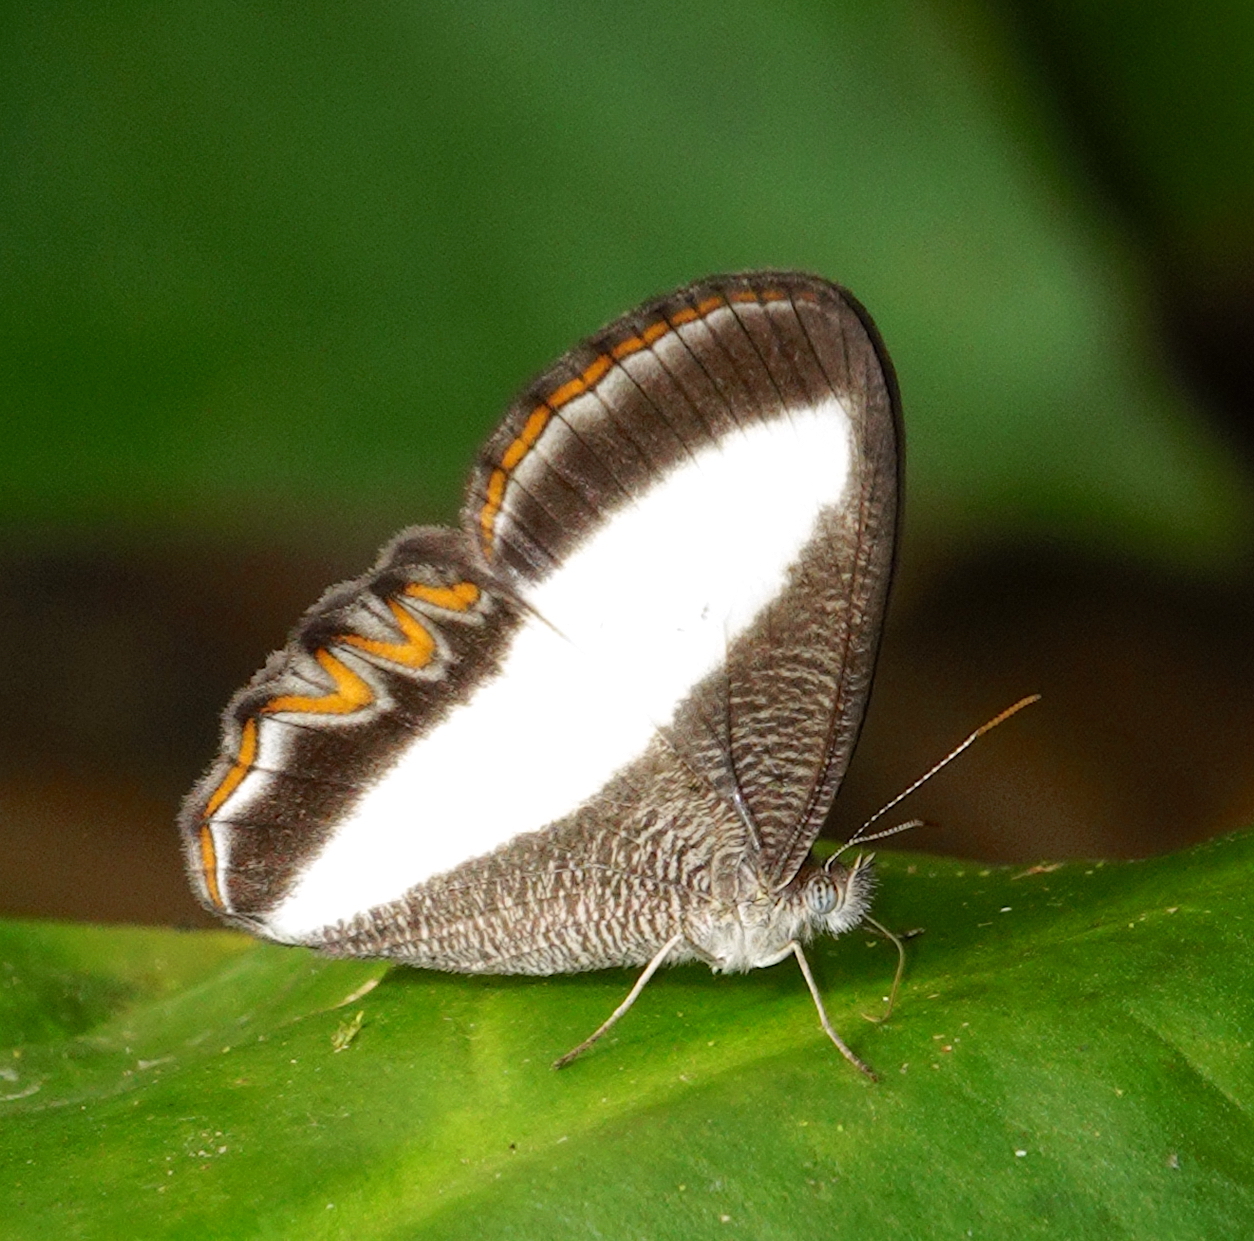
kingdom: Animalia
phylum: Arthropoda
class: Insecta
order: Lepidoptera
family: Nymphalidae
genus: Oressinoma
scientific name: Oressinoma typhla
